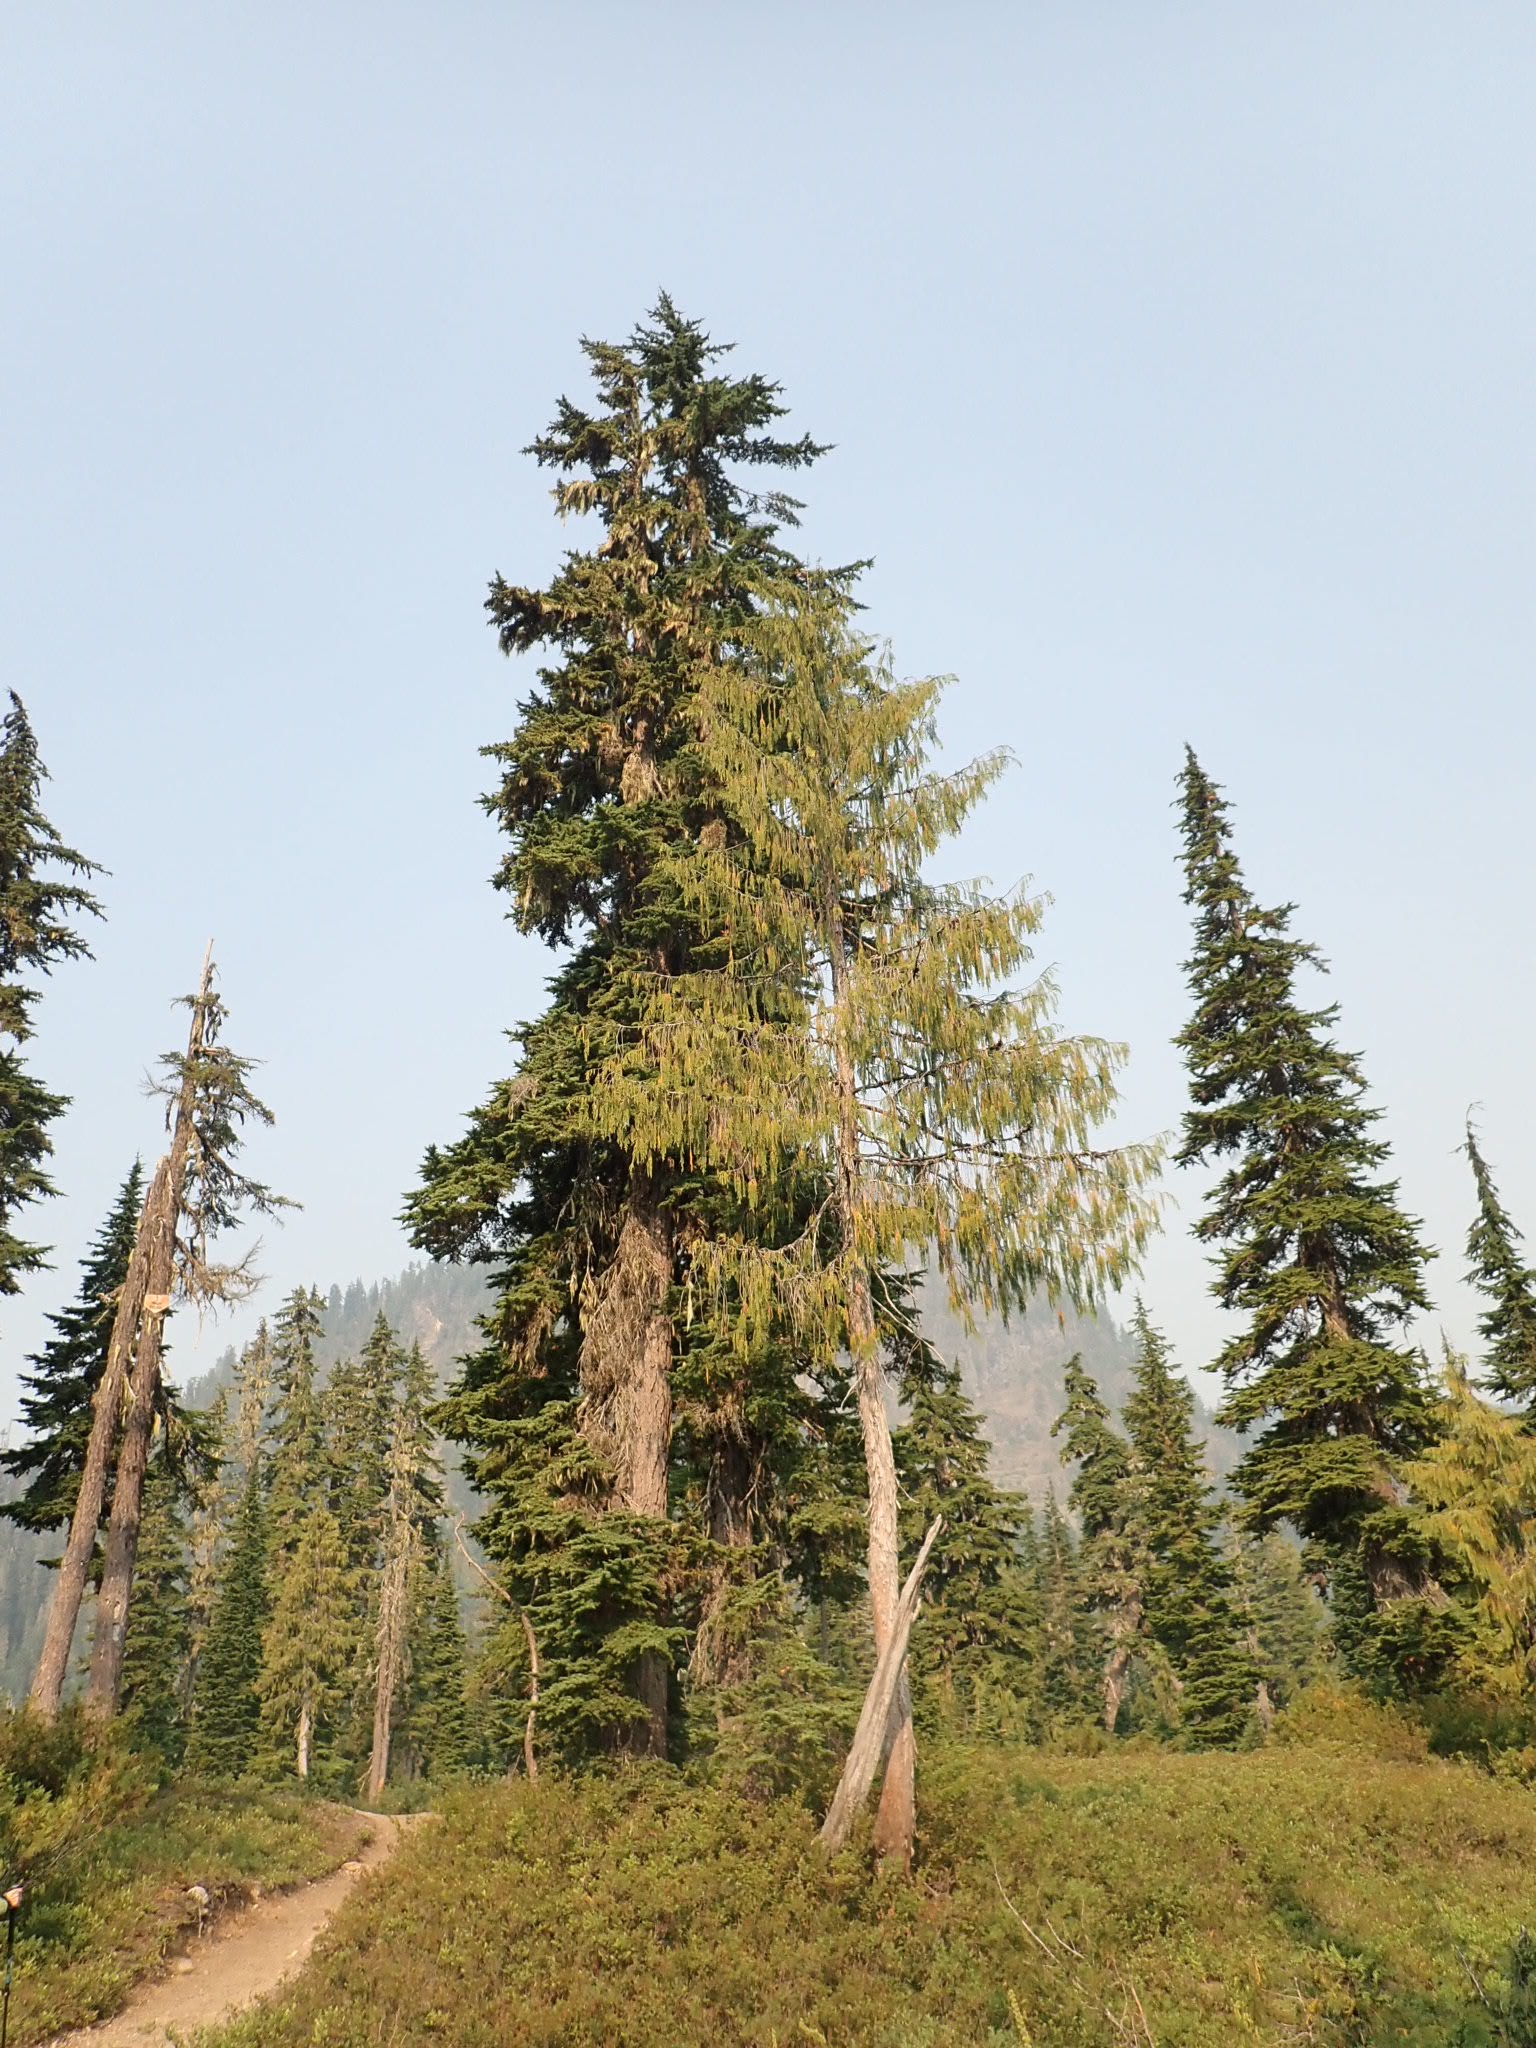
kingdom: Plantae
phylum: Tracheophyta
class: Pinopsida
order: Pinales
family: Cupressaceae
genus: Xanthocyparis
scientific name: Xanthocyparis nootkatensis
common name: Nootka cypress
